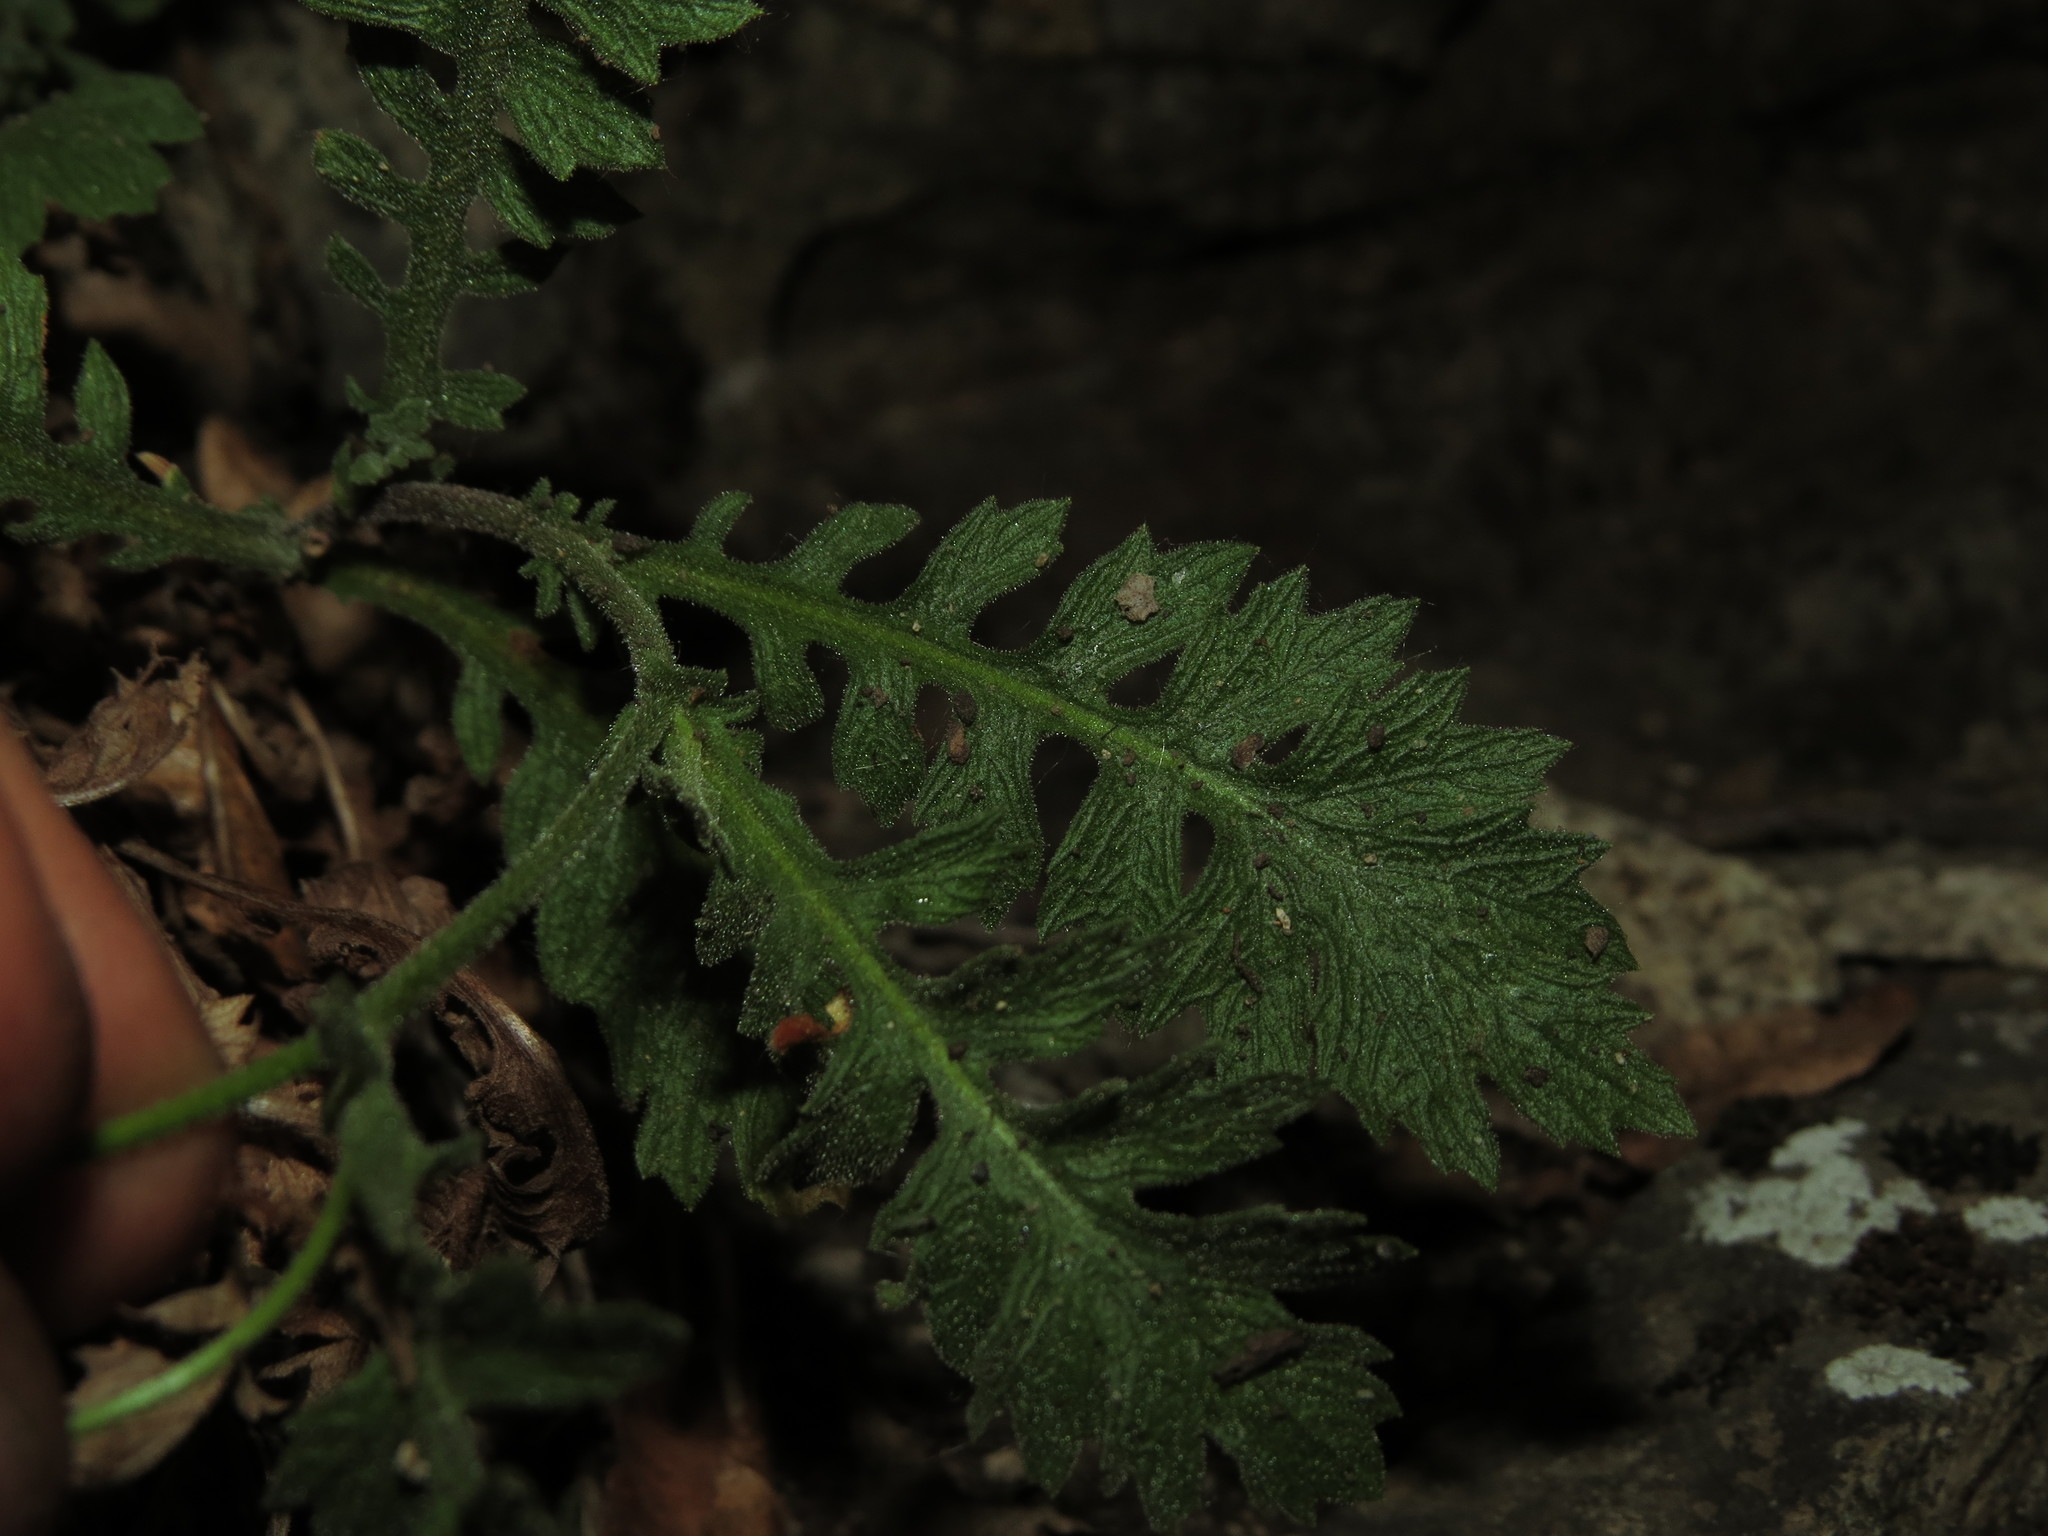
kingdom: Plantae
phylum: Tracheophyta
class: Magnoliopsida
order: Asterales
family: Asteraceae
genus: Leucheria
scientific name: Leucheria cantillanensis
